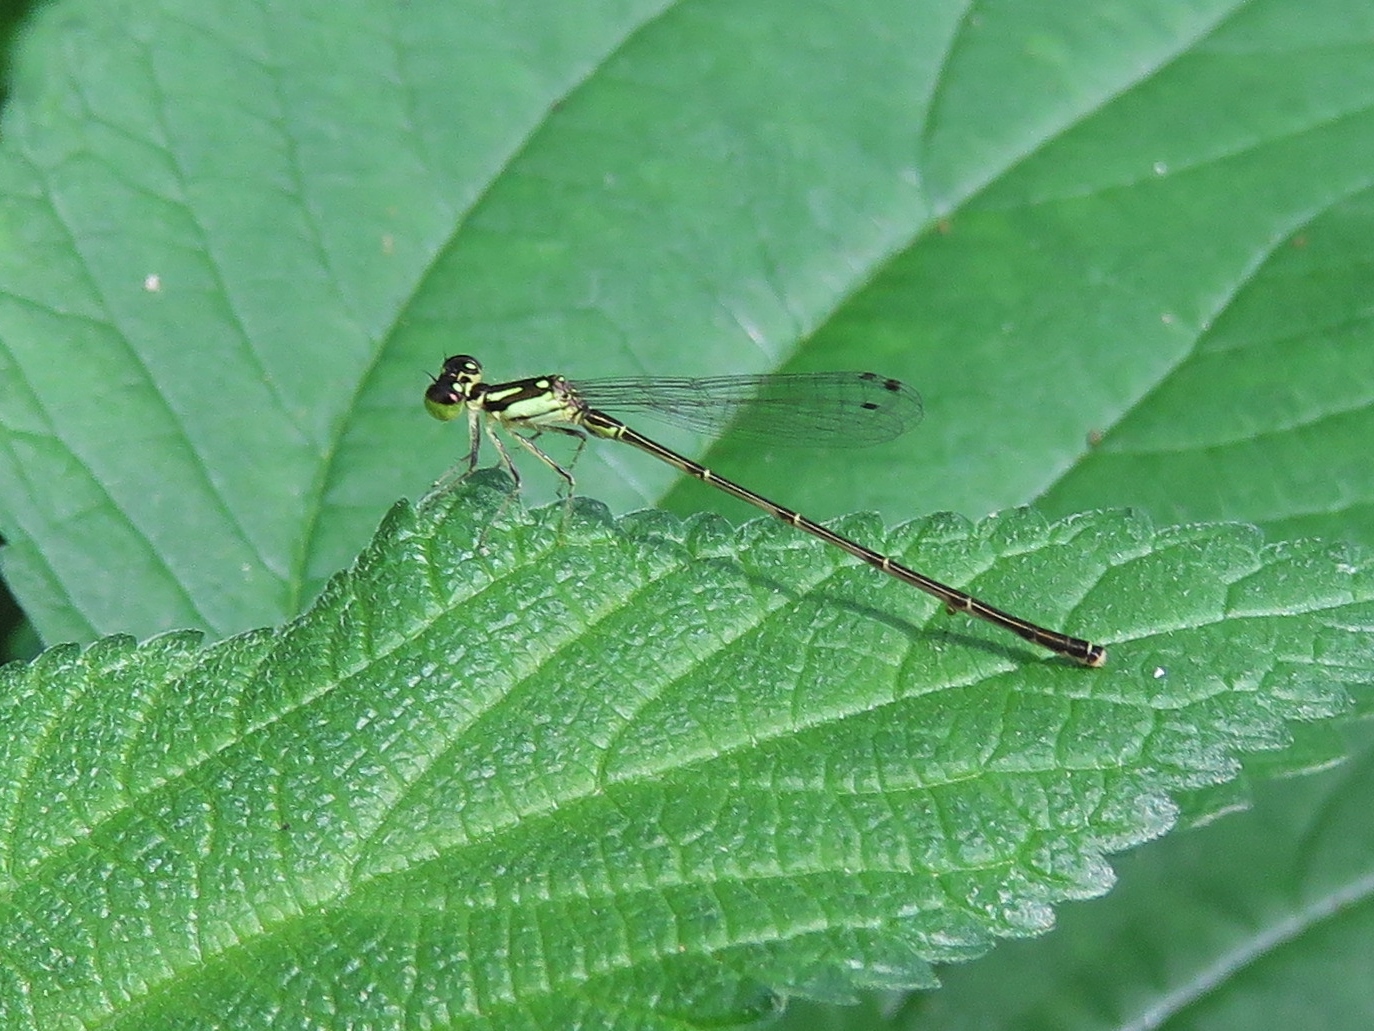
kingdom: Animalia
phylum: Arthropoda
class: Insecta
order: Odonata
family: Coenagrionidae
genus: Ischnura
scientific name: Ischnura posita
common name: Fragile forktail
